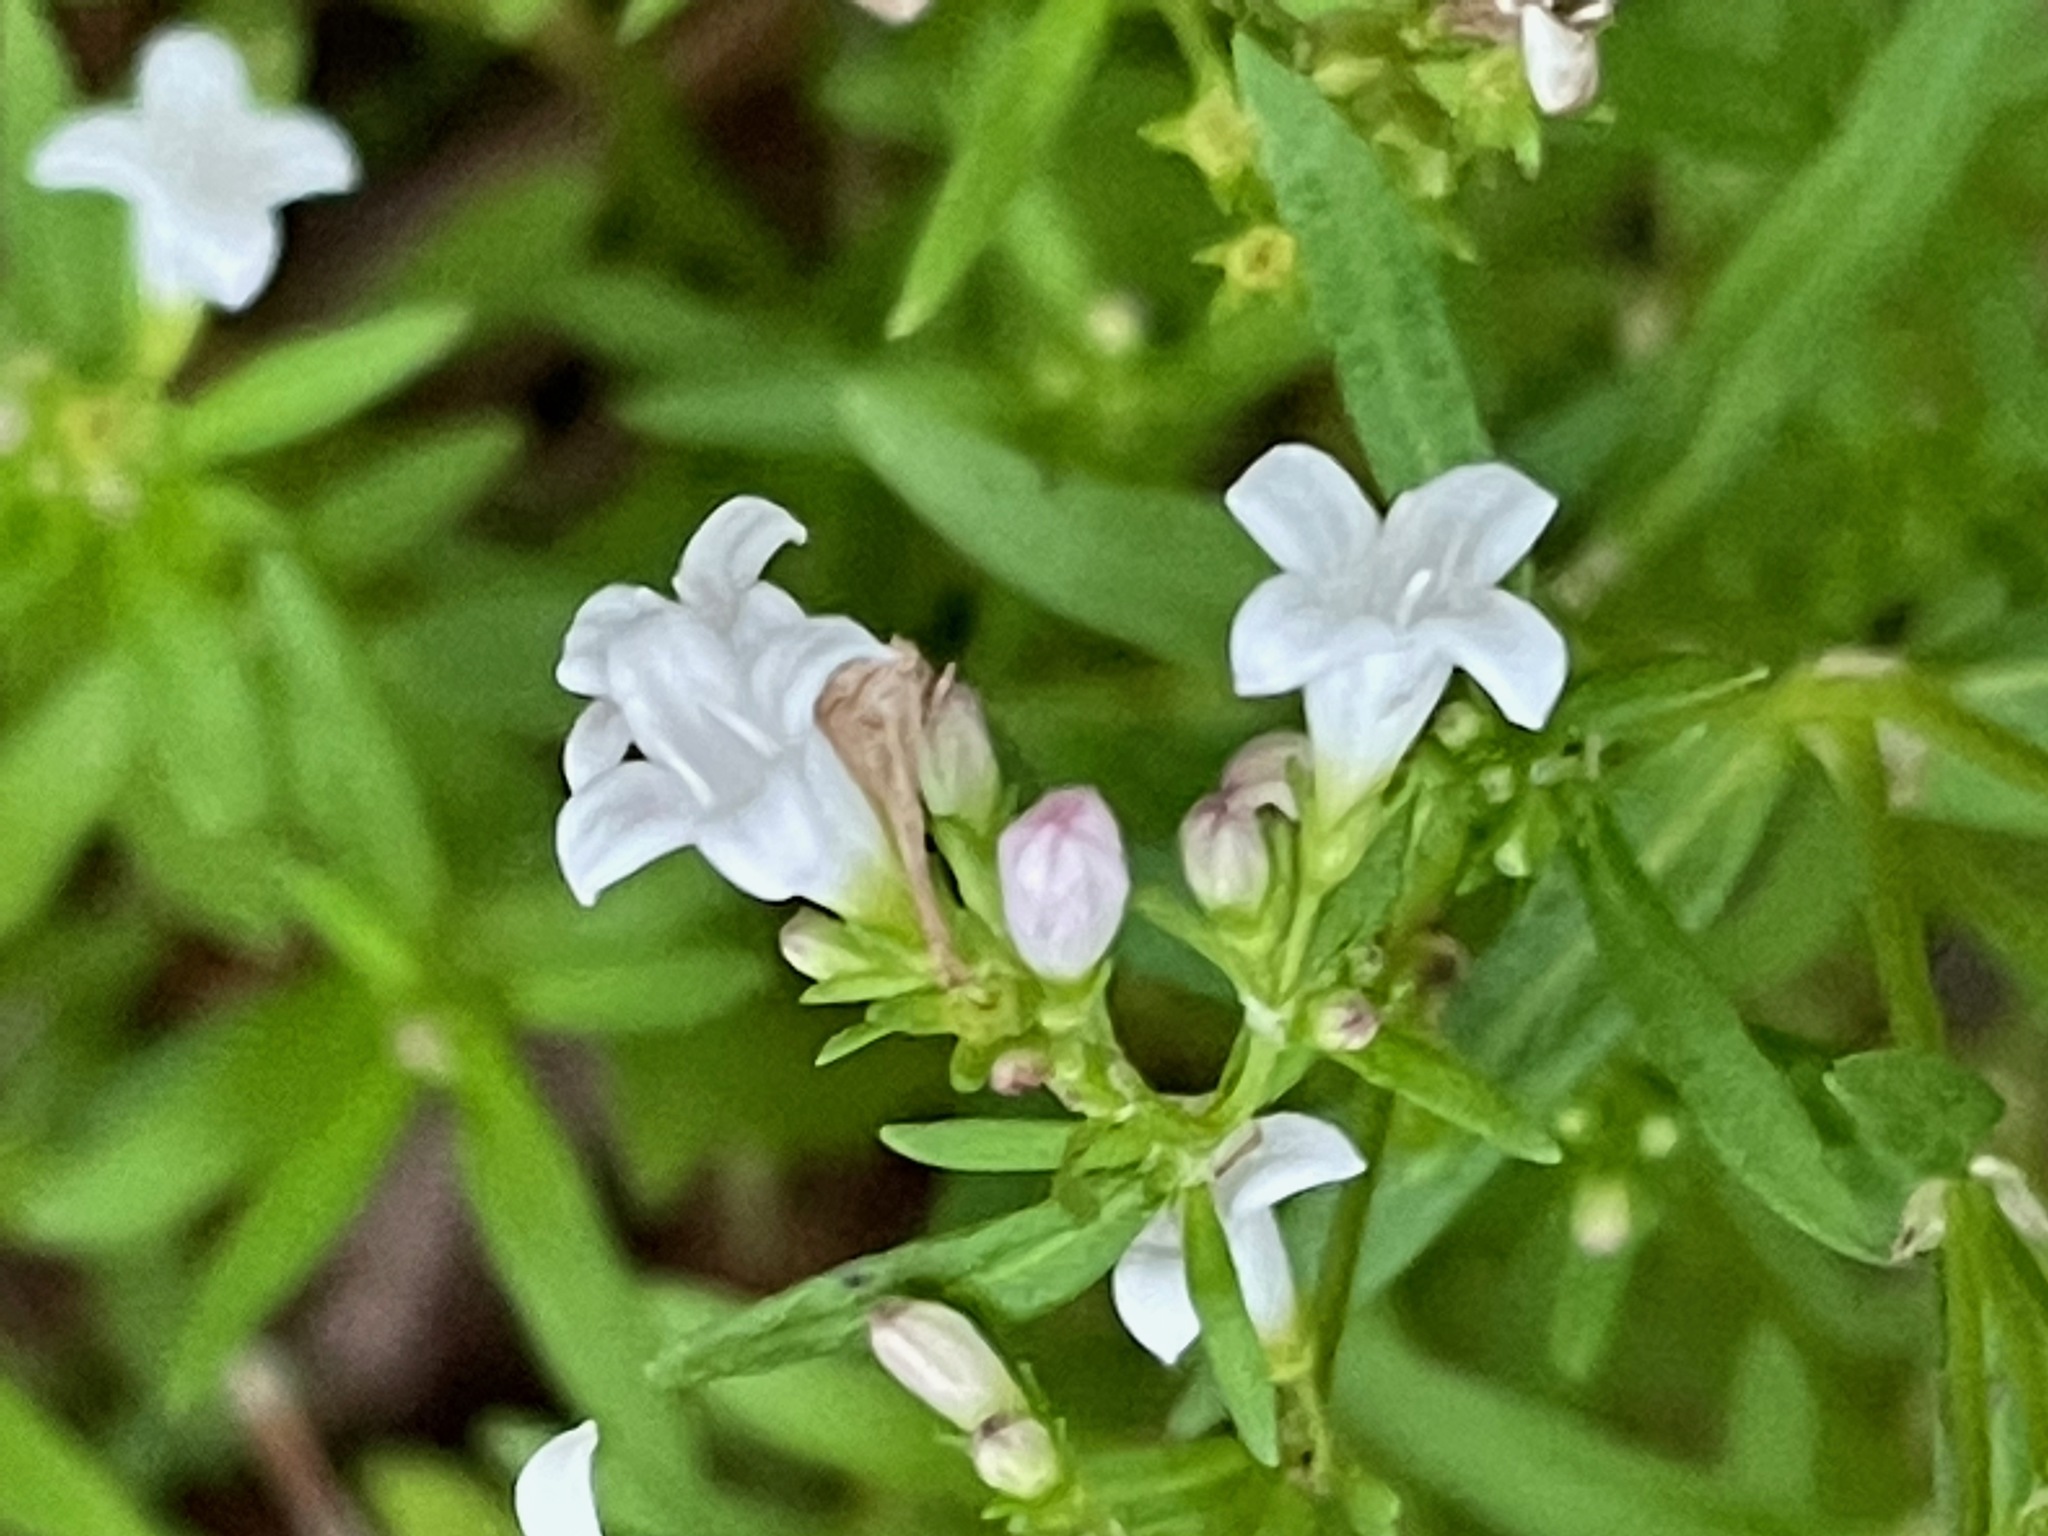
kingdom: Plantae
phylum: Tracheophyta
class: Magnoliopsida
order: Gentianales
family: Rubiaceae
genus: Houstonia
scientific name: Houstonia longifolia
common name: Long-leaved bluets
